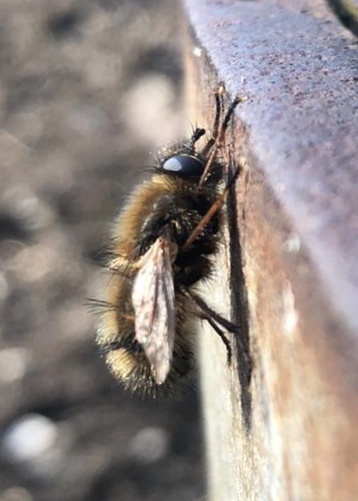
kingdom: Animalia
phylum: Arthropoda
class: Insecta
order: Diptera
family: Tachinidae
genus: Tachina
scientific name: Tachina ursina
